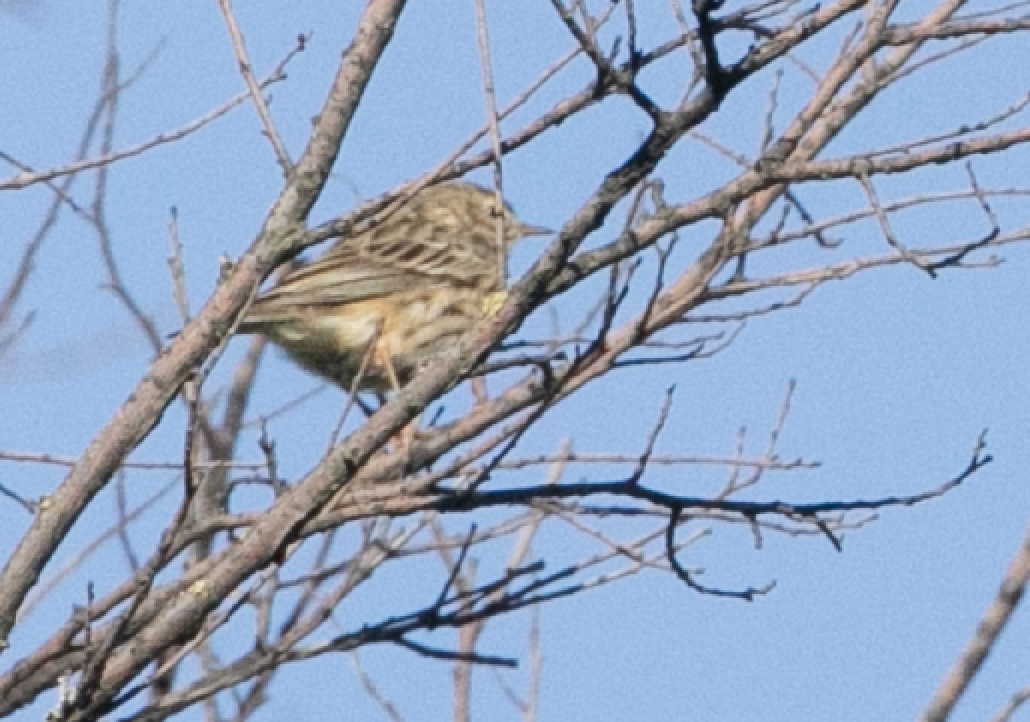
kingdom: Animalia
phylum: Chordata
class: Aves
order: Passeriformes
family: Motacillidae
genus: Anthus
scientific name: Anthus pratensis
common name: Meadow pipit
